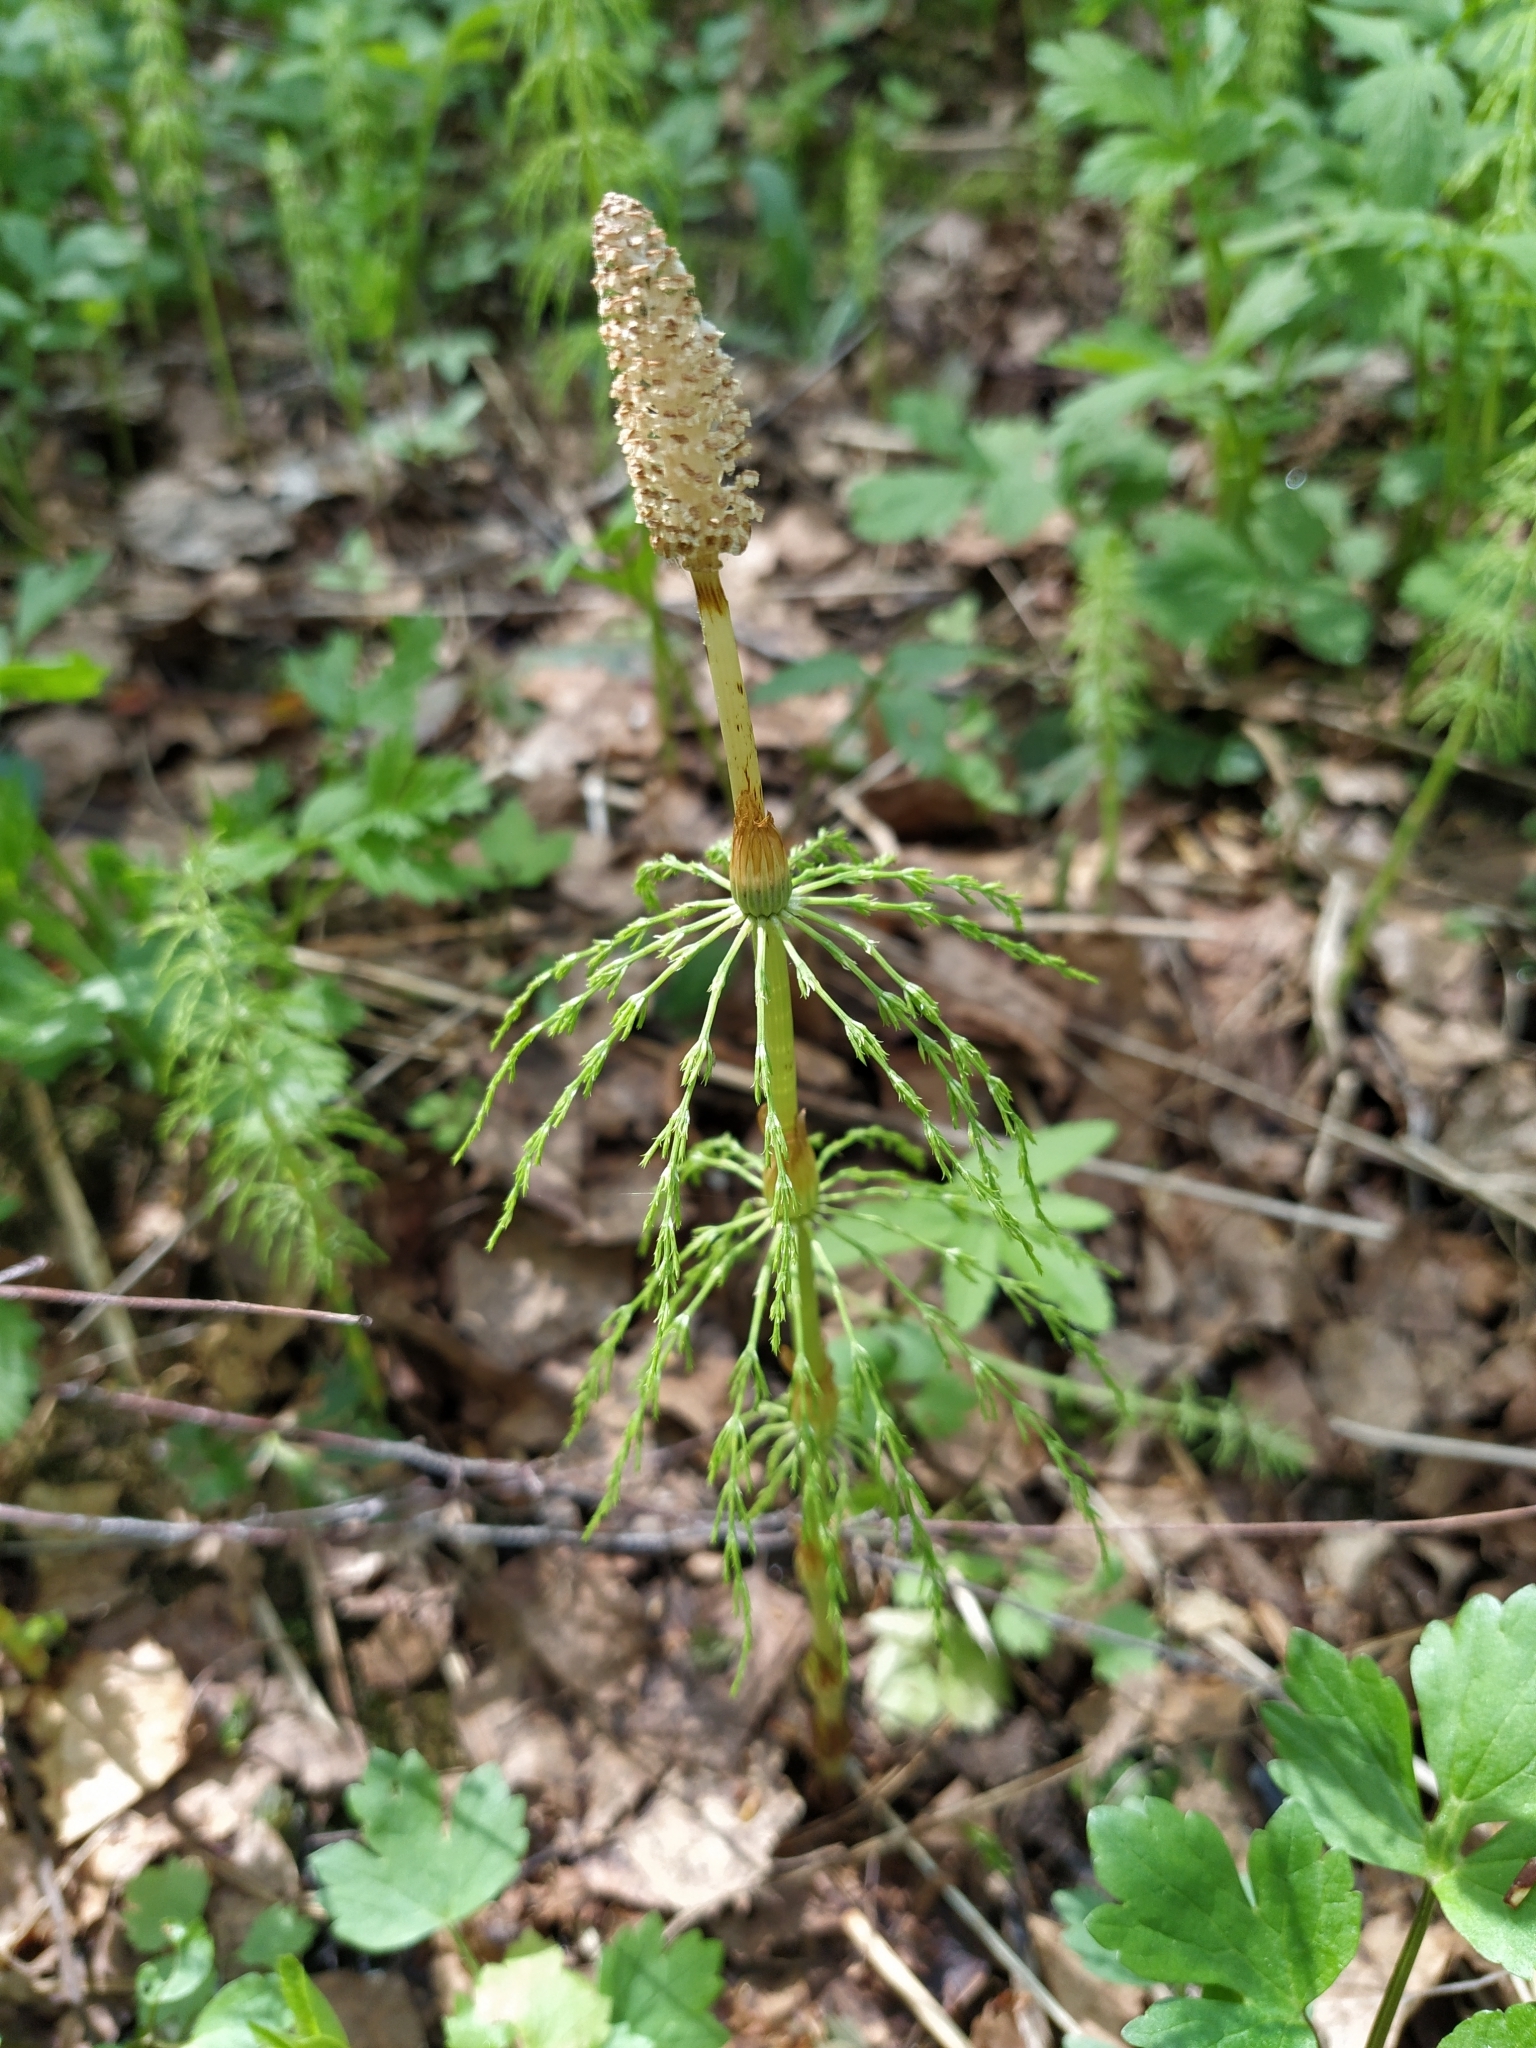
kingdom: Plantae
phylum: Tracheophyta
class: Polypodiopsida
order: Equisetales
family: Equisetaceae
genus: Equisetum
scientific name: Equisetum sylvaticum
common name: Wood horsetail
